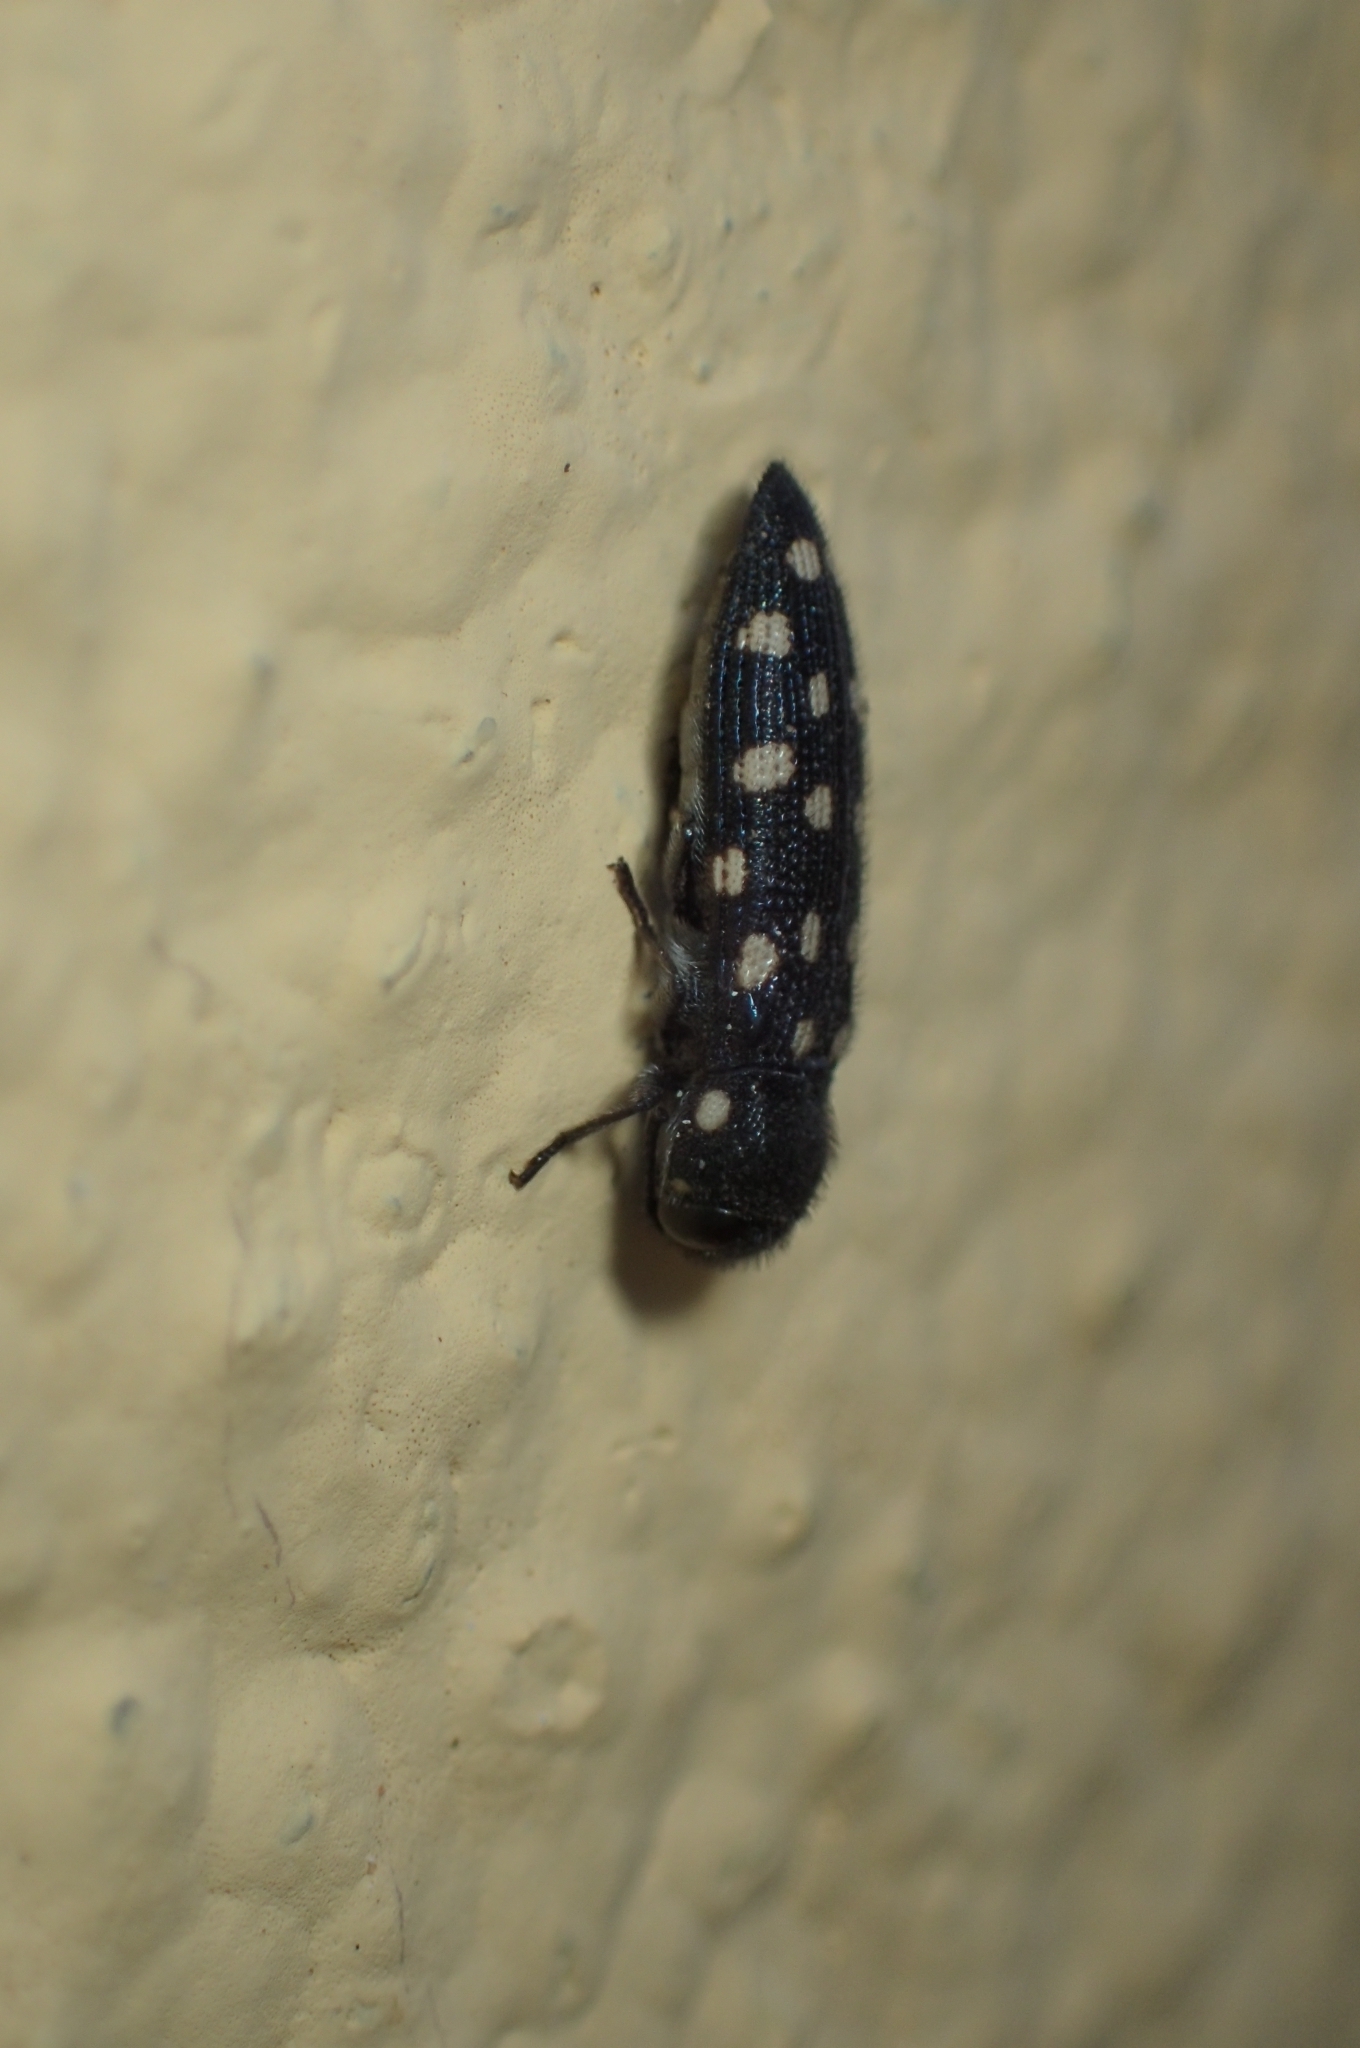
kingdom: Animalia
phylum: Arthropoda
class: Insecta
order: Coleoptera
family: Buprestidae
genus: Acmaeodera
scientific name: Acmaeodera degener
